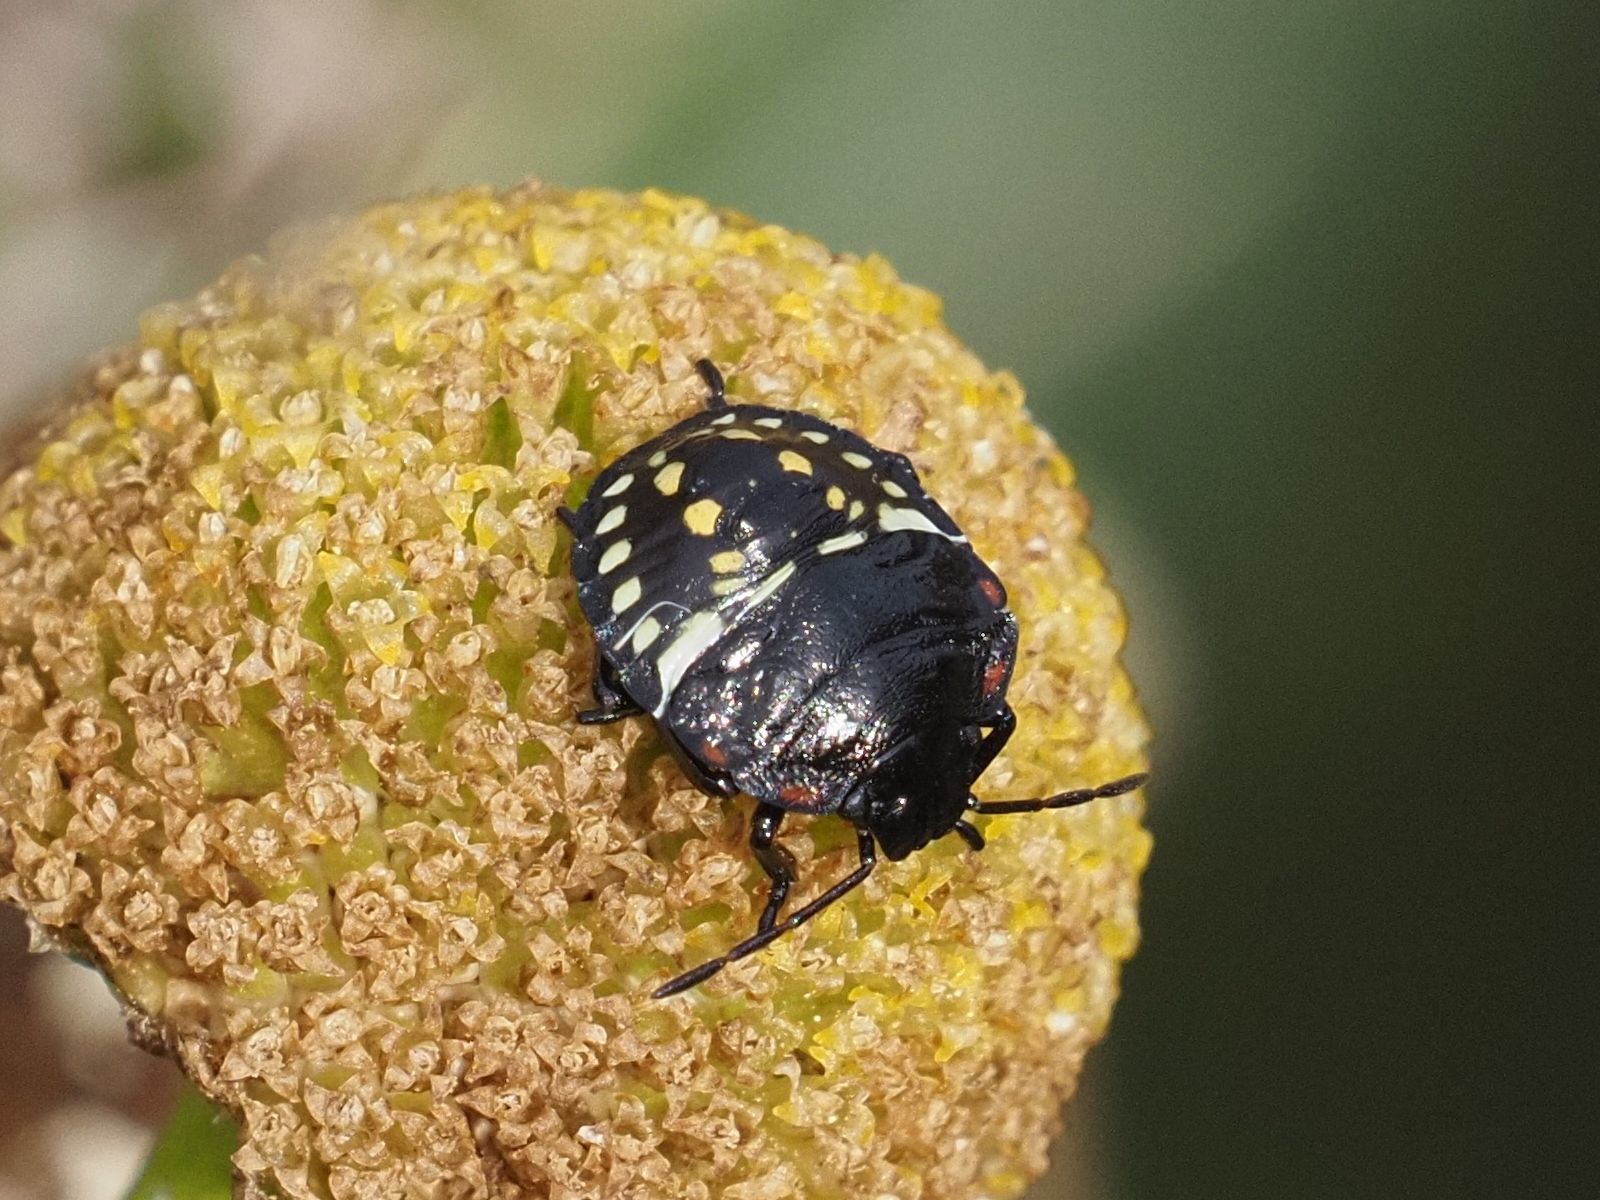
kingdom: Animalia
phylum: Arthropoda
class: Insecta
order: Hemiptera
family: Pentatomidae
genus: Nezara
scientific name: Nezara viridula
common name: Southern green stink bug
